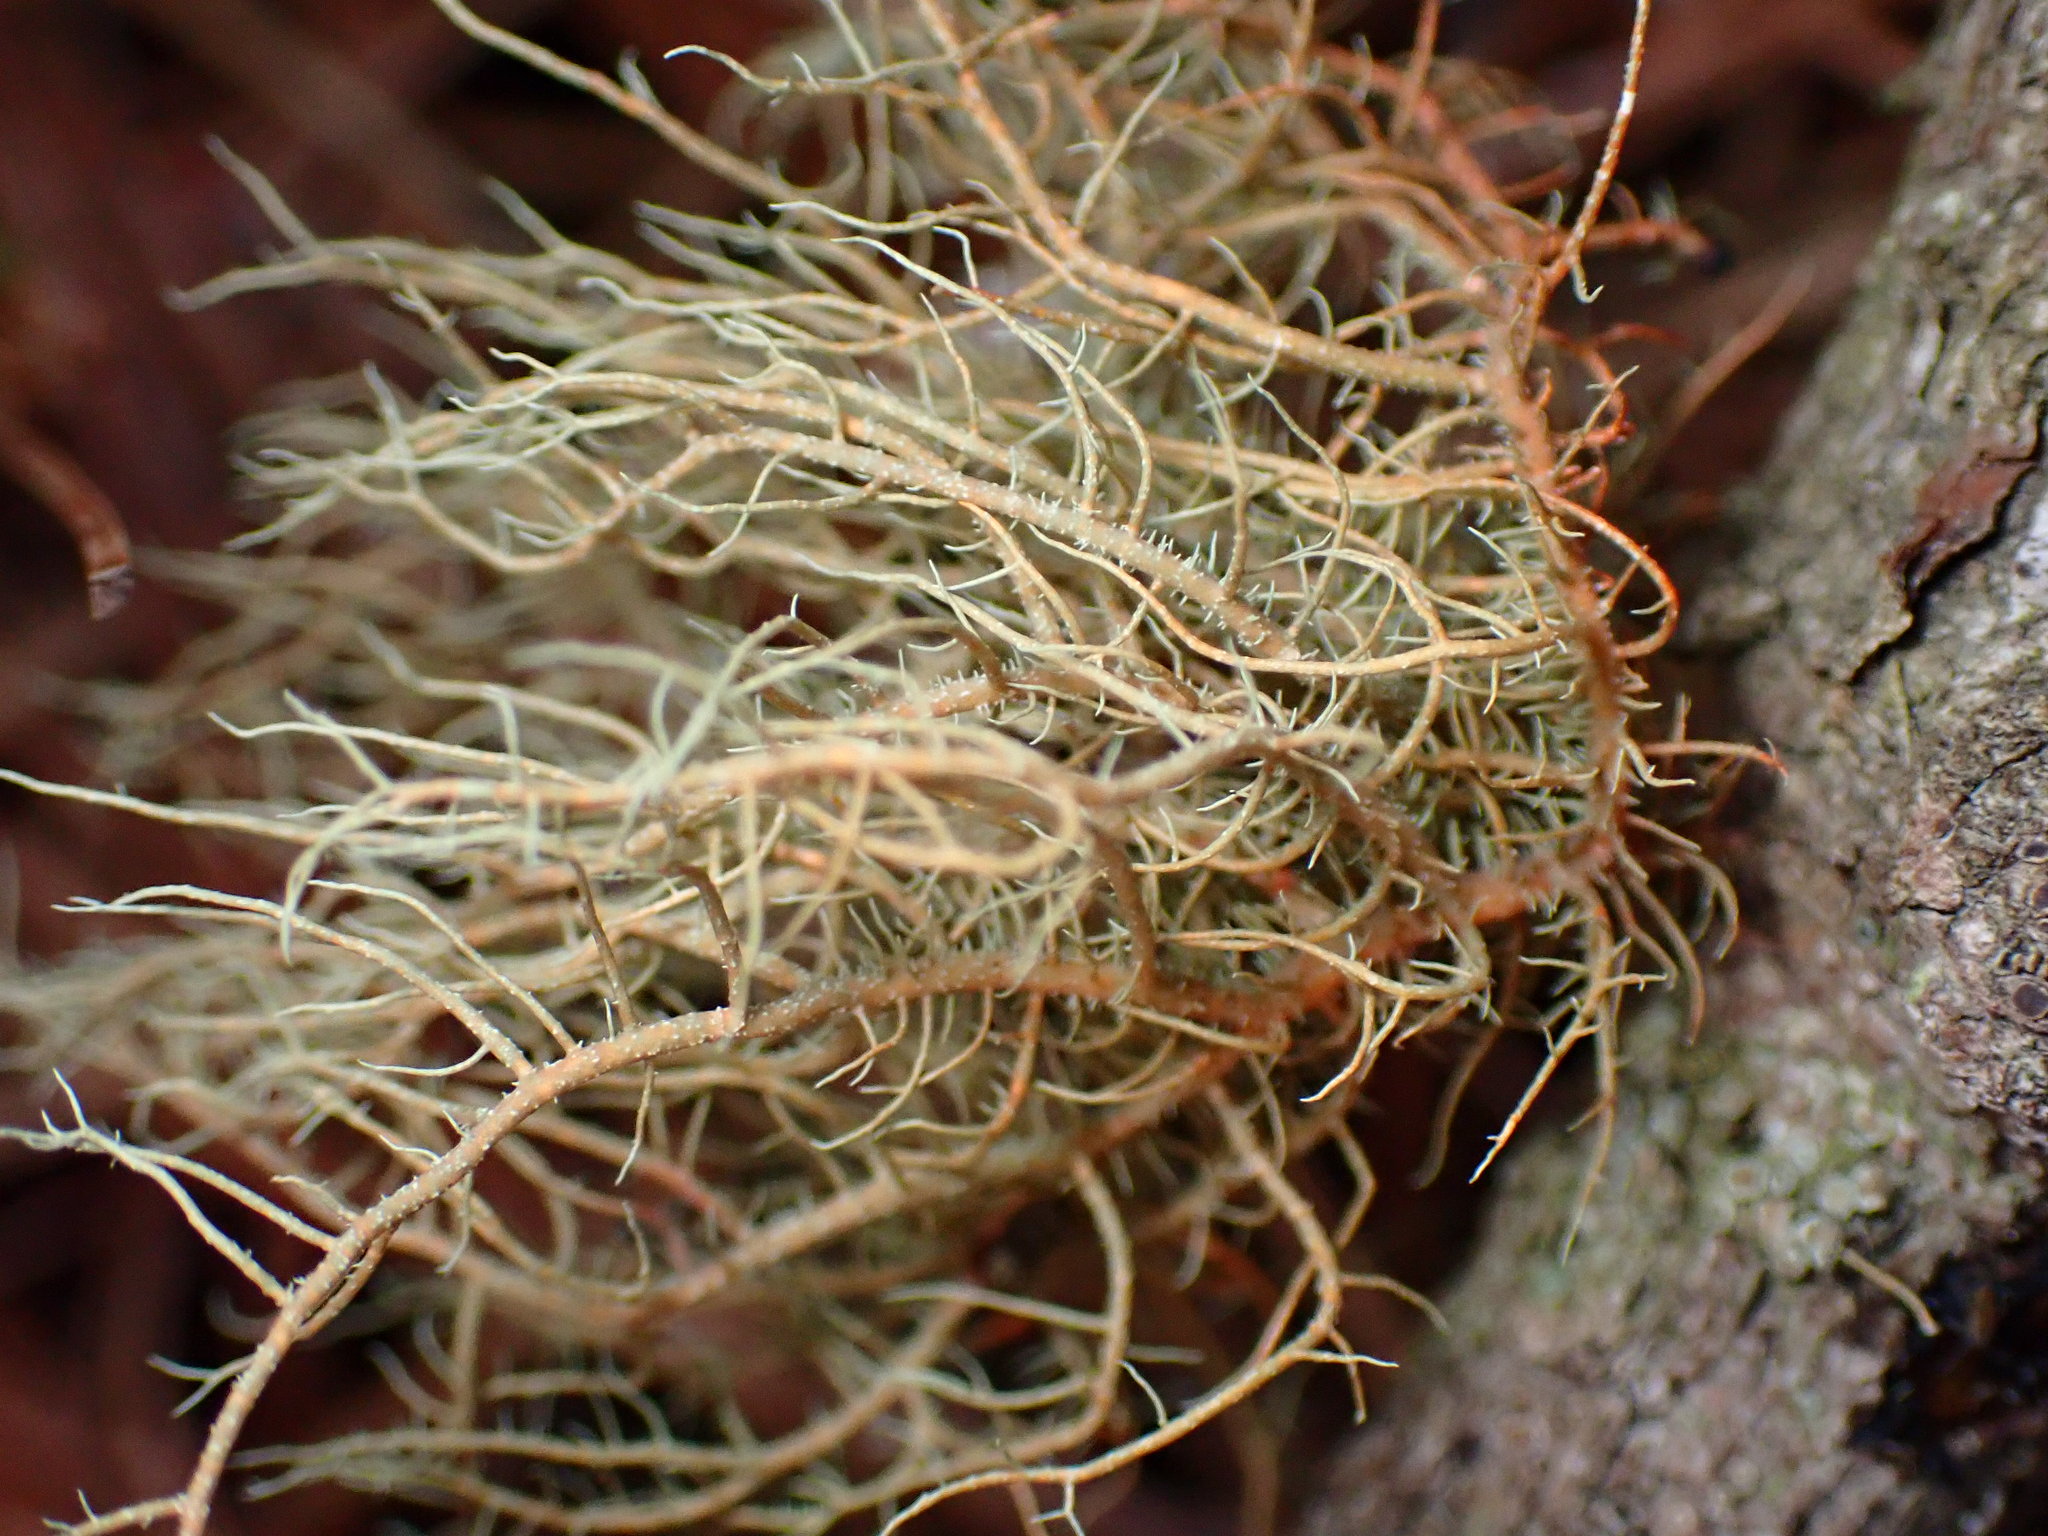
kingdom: Fungi
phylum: Ascomycota
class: Lecanoromycetes
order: Lecanorales
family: Parmeliaceae
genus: Usnea
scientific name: Usnea rubicunda
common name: Red beard lichen
